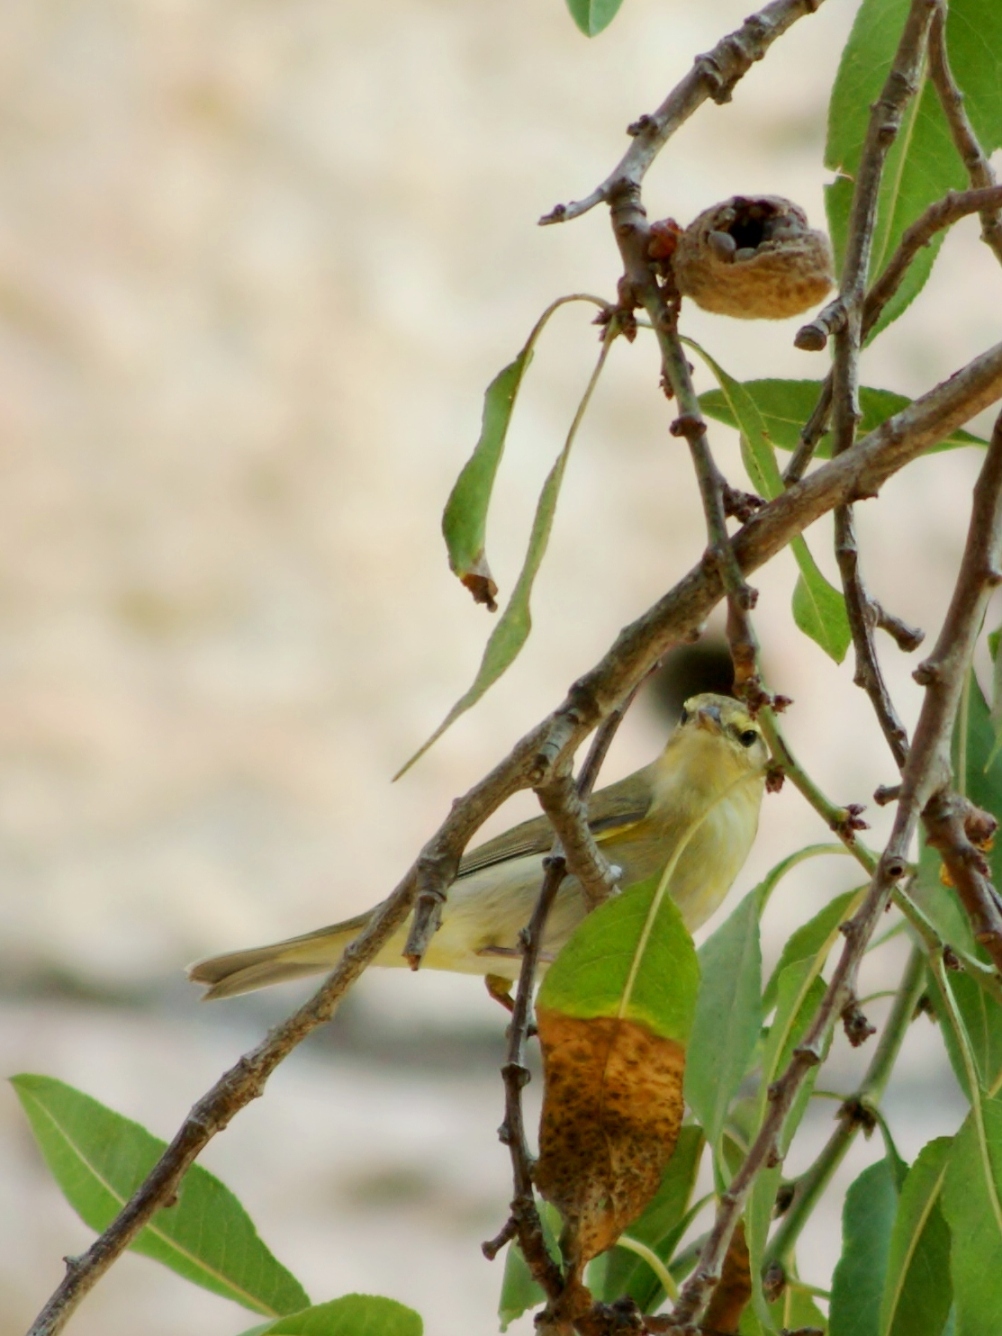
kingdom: Animalia
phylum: Chordata
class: Aves
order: Passeriformes
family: Phylloscopidae
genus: Phylloscopus
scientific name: Phylloscopus trochilus
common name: Willow warbler
